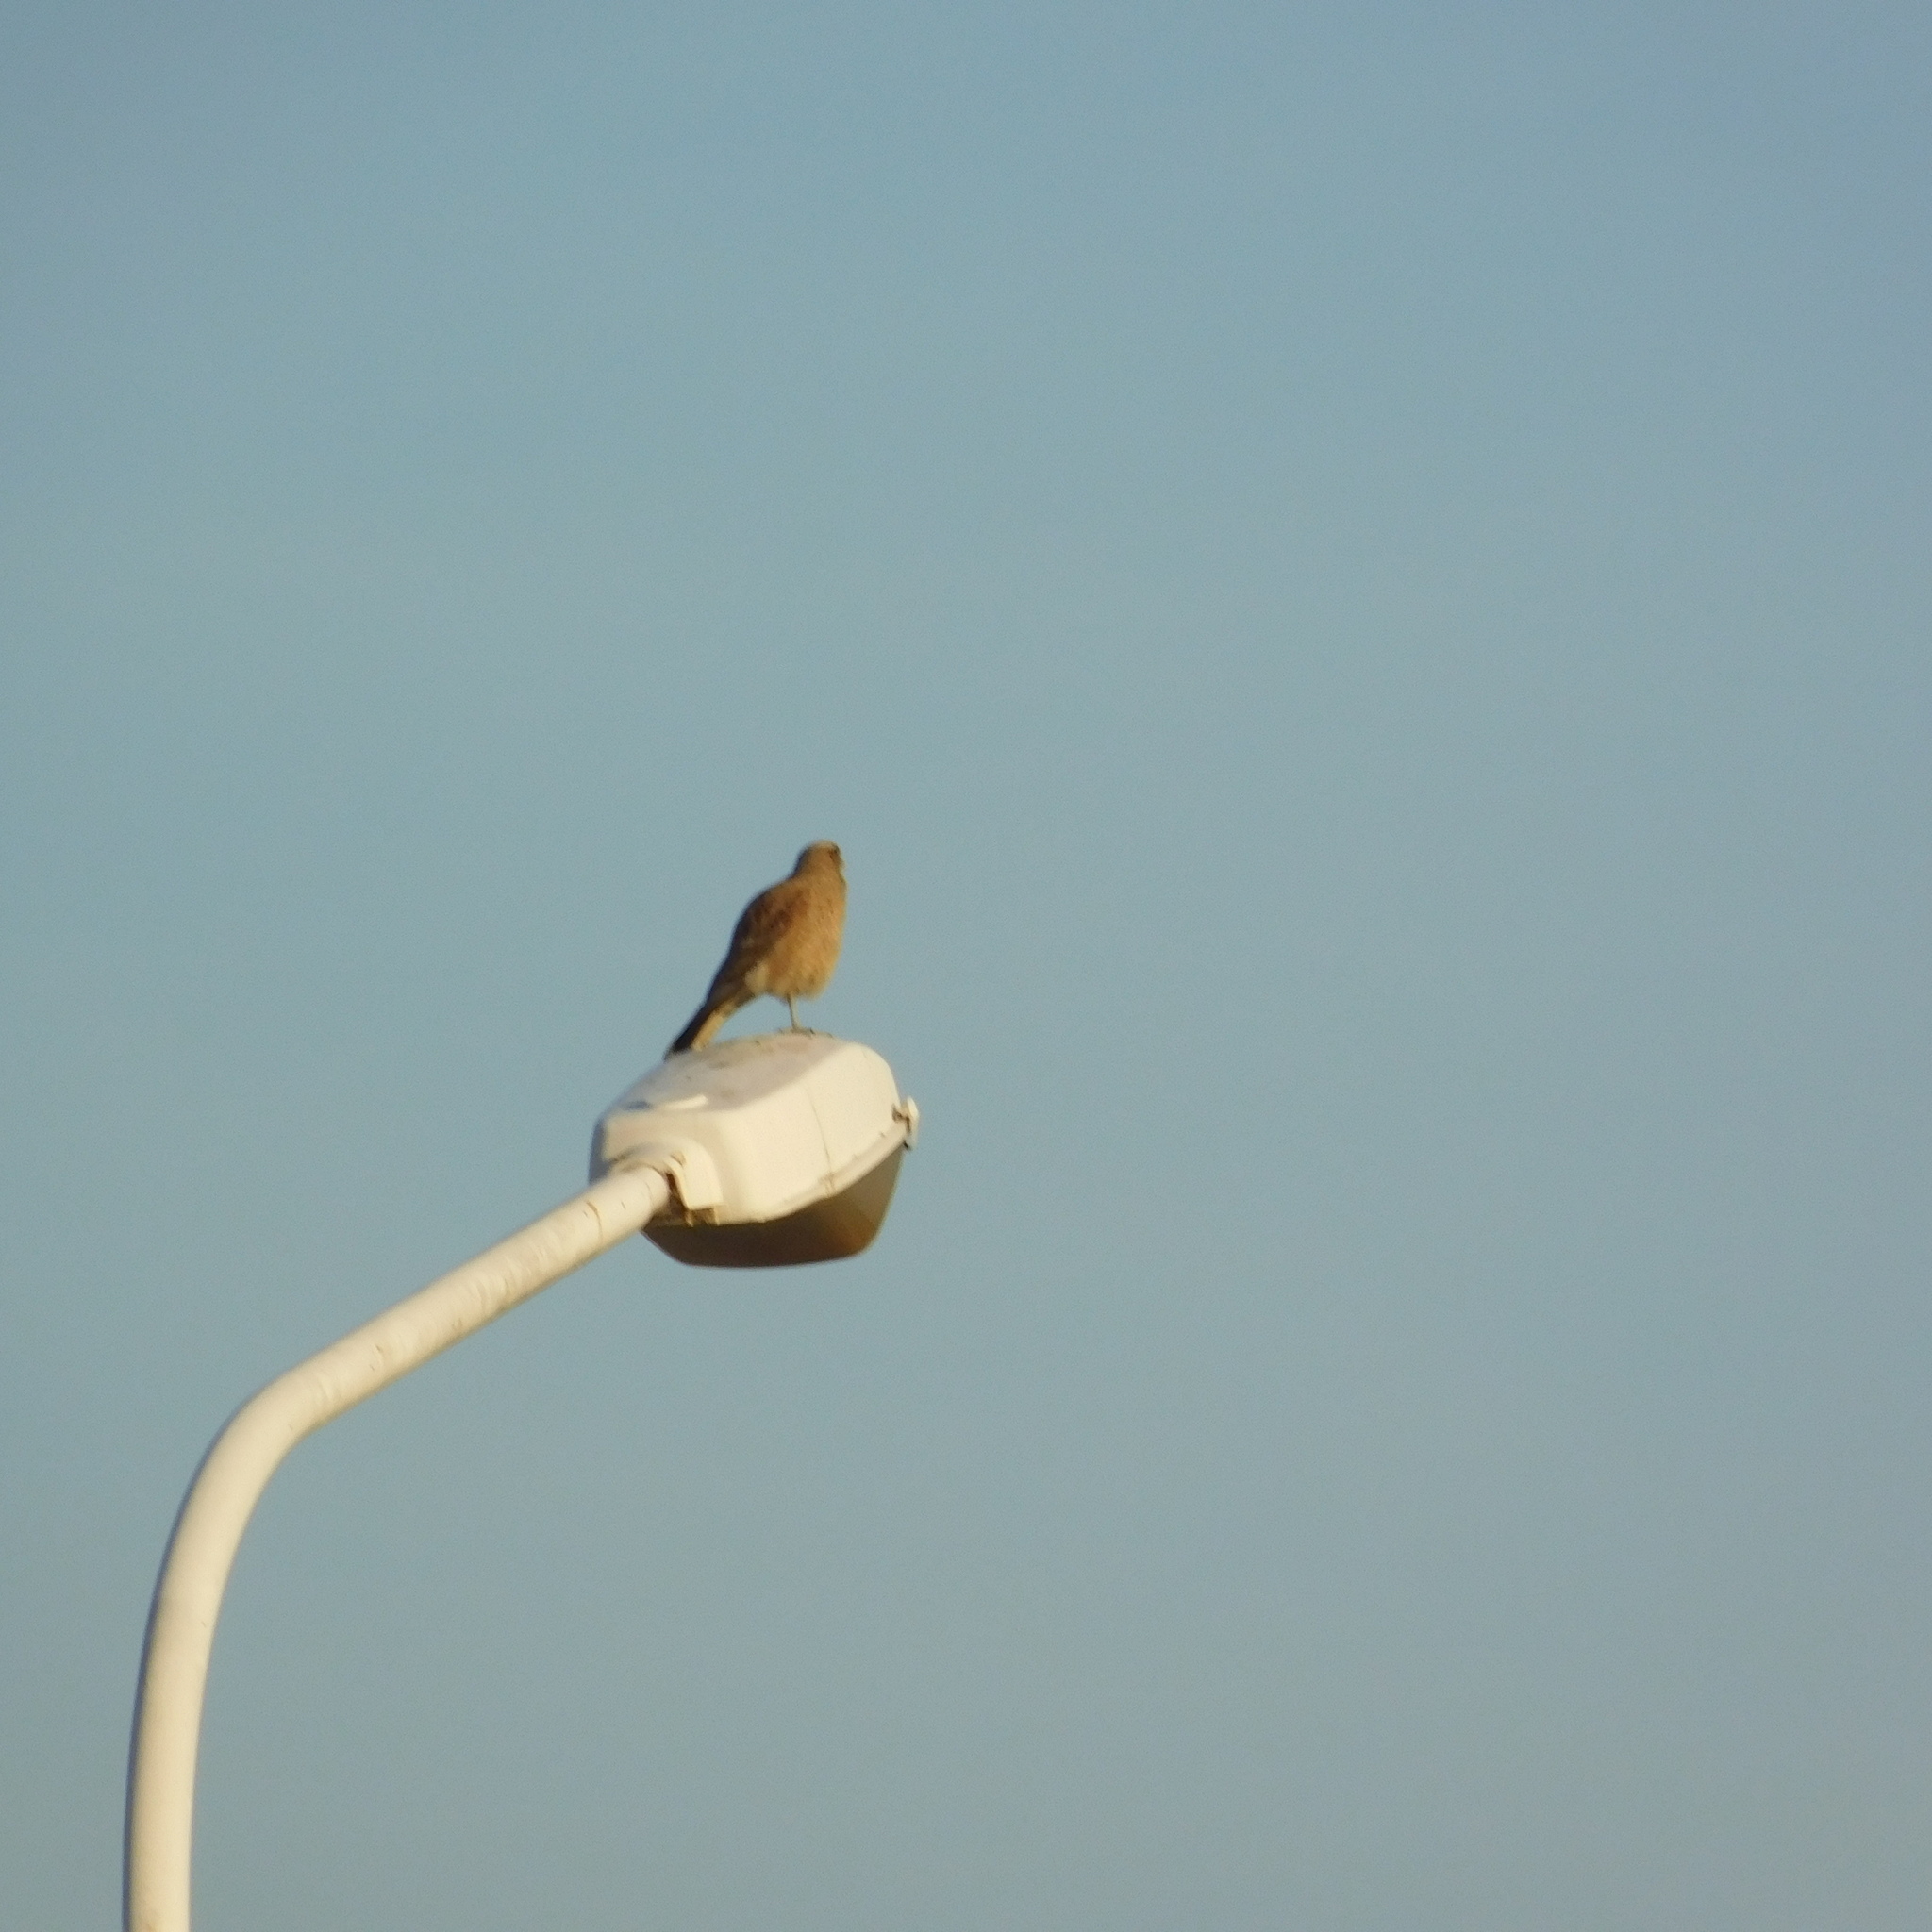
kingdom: Animalia
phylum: Chordata
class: Aves
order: Falconiformes
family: Falconidae
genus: Daptrius
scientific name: Daptrius
